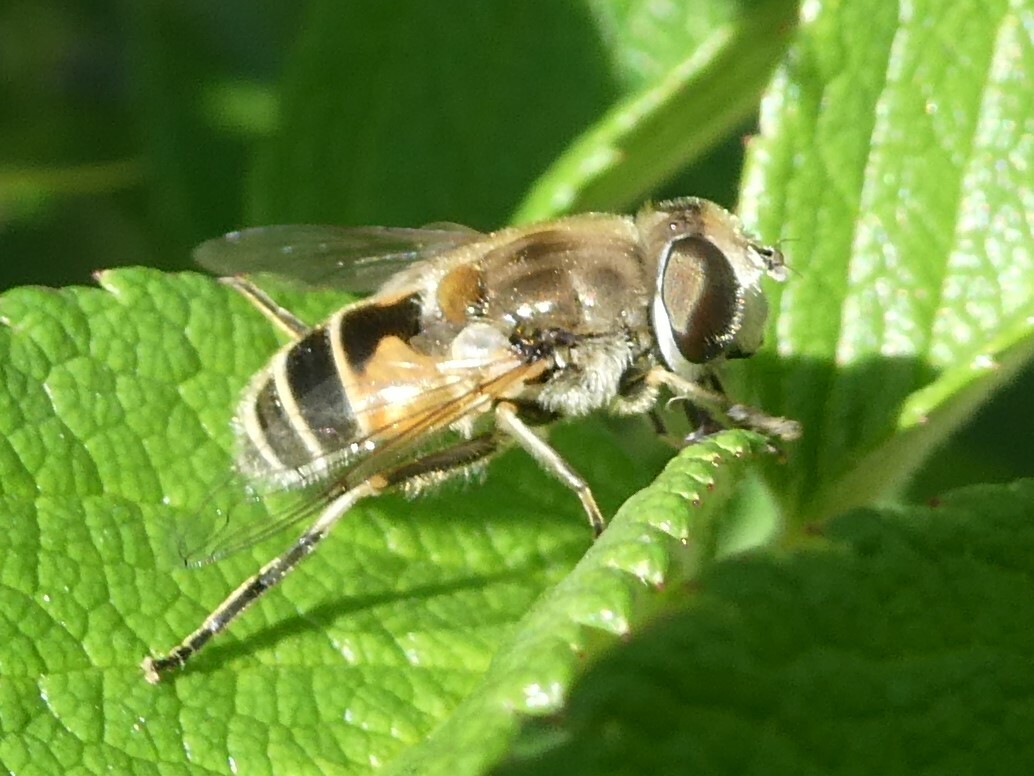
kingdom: Animalia
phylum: Arthropoda
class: Insecta
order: Diptera
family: Syrphidae
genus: Eristalis
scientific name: Eristalis arbustorum
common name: Hover fly
